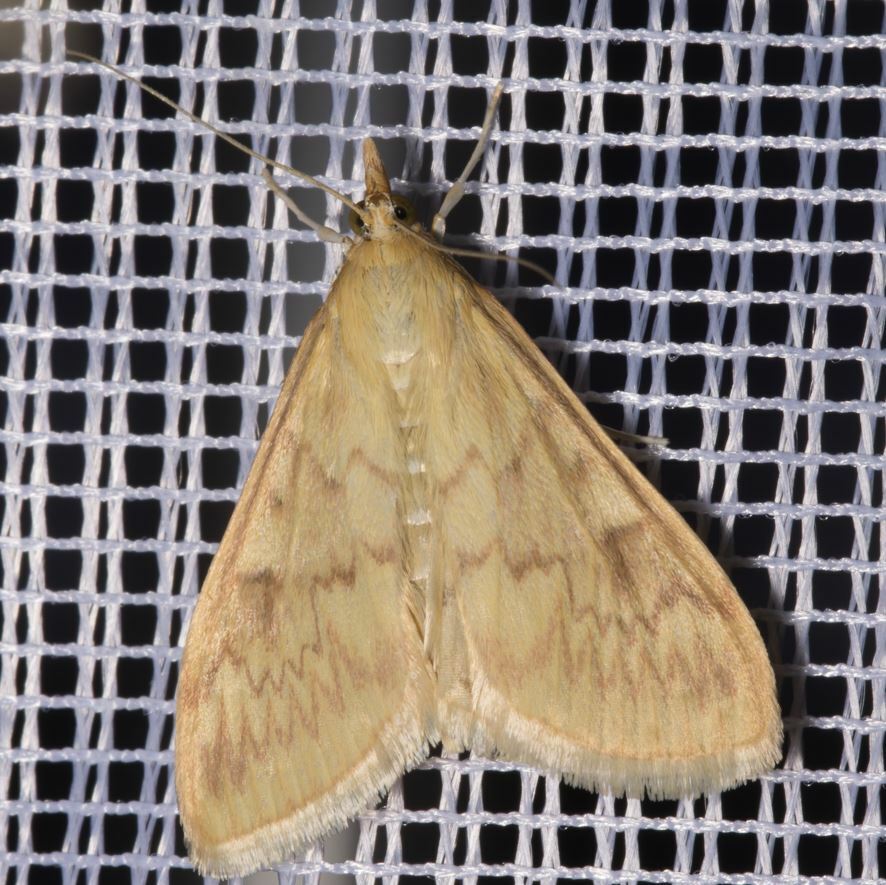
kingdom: Animalia
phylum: Arthropoda
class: Insecta
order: Lepidoptera
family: Crambidae
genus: Ostrinia
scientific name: Ostrinia nubilalis
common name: European corn borer
